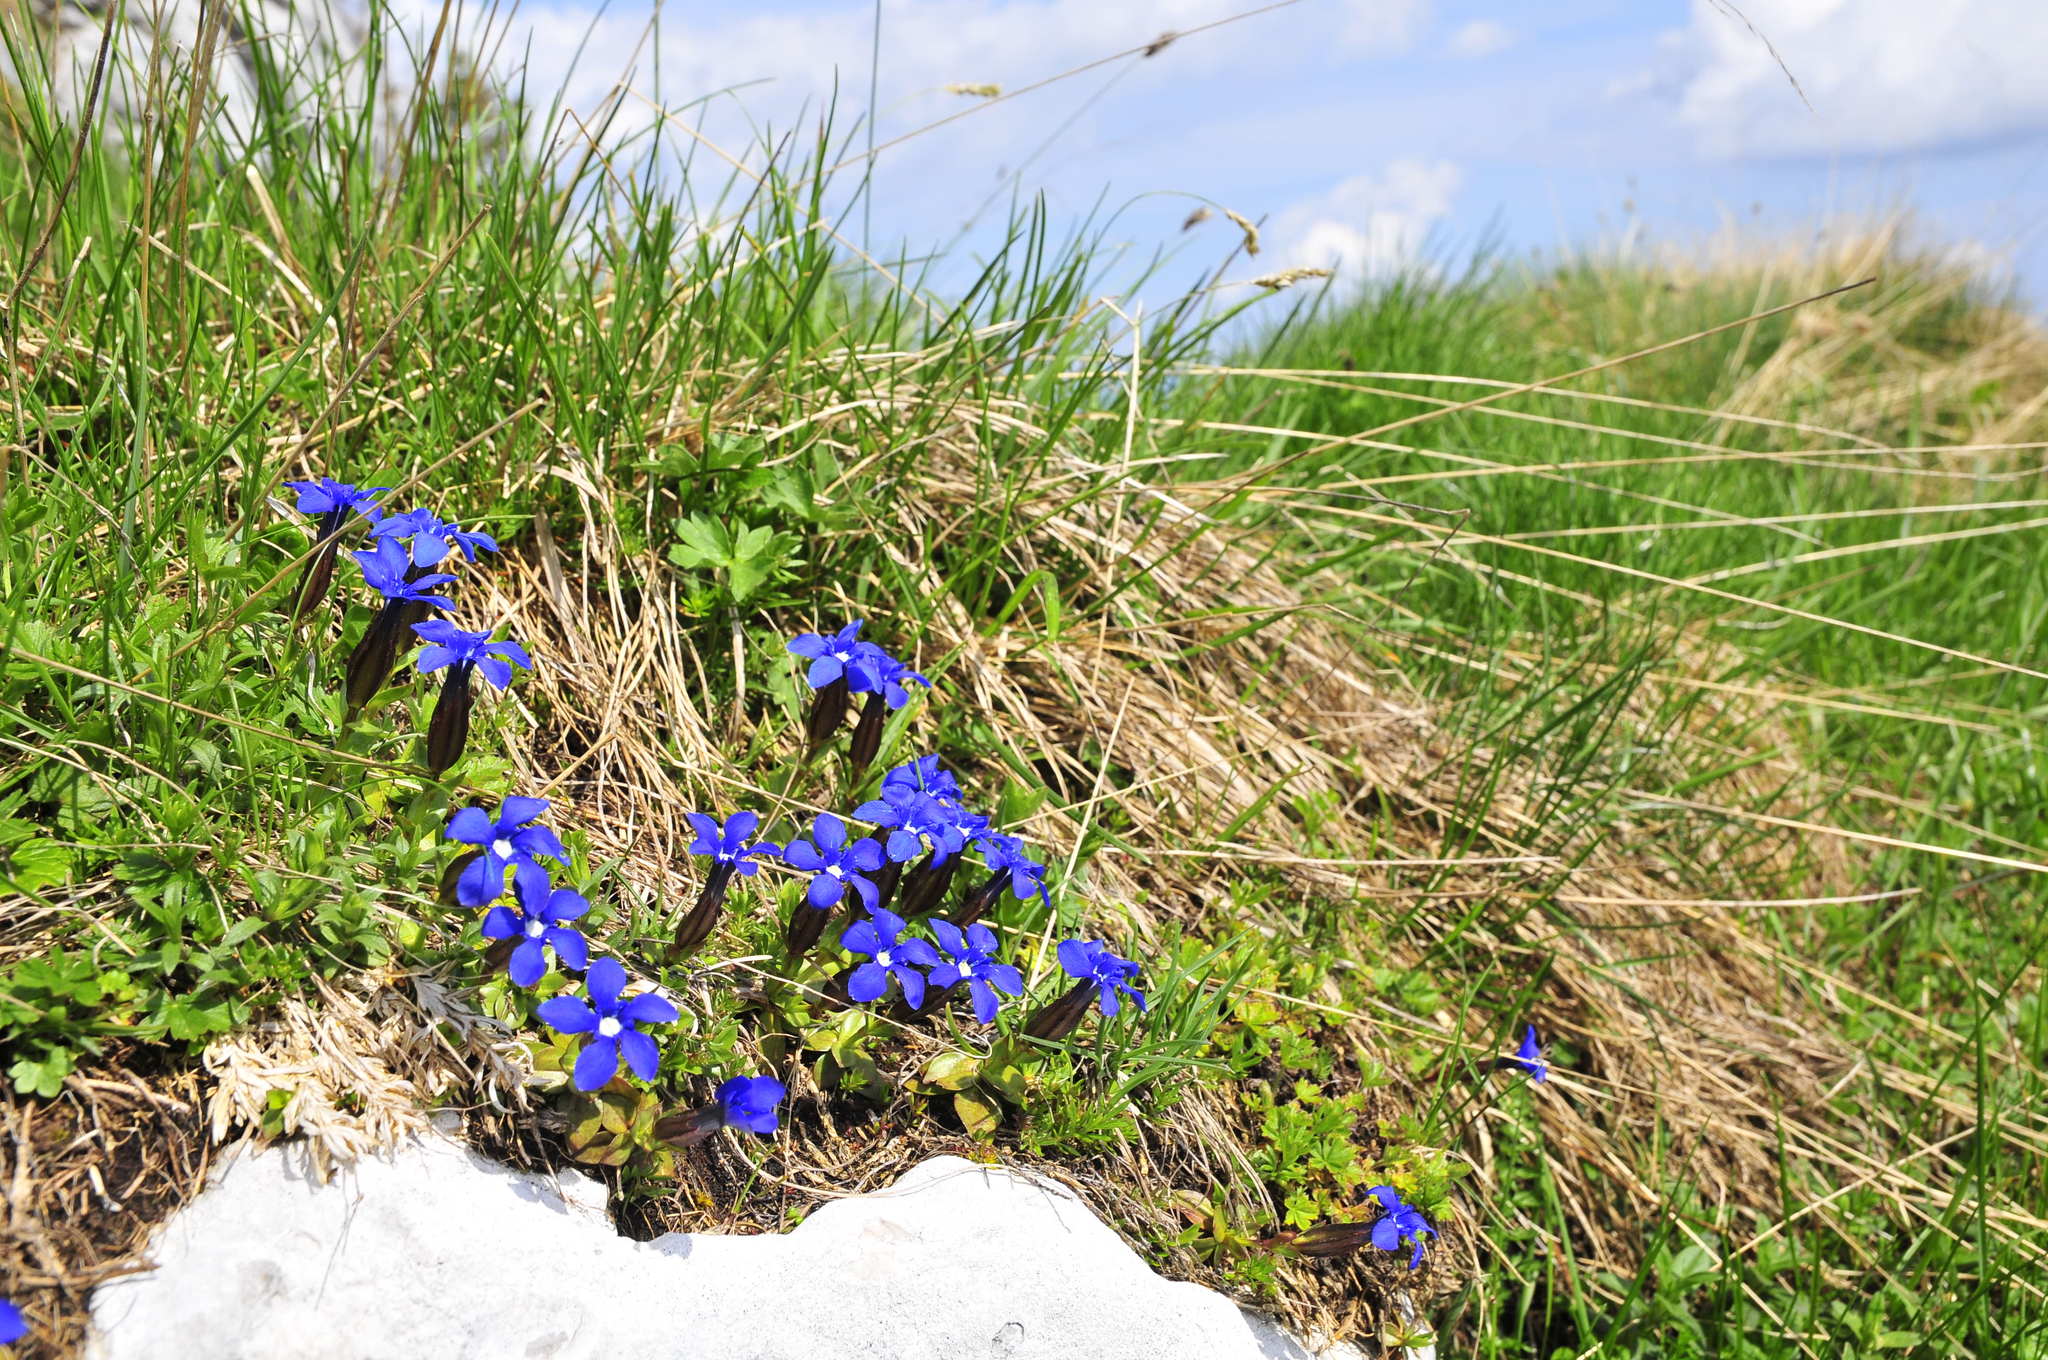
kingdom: Plantae
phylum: Tracheophyta
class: Magnoliopsida
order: Gentianales
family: Gentianaceae
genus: Gentiana
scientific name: Gentiana verna
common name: Spring gentian
